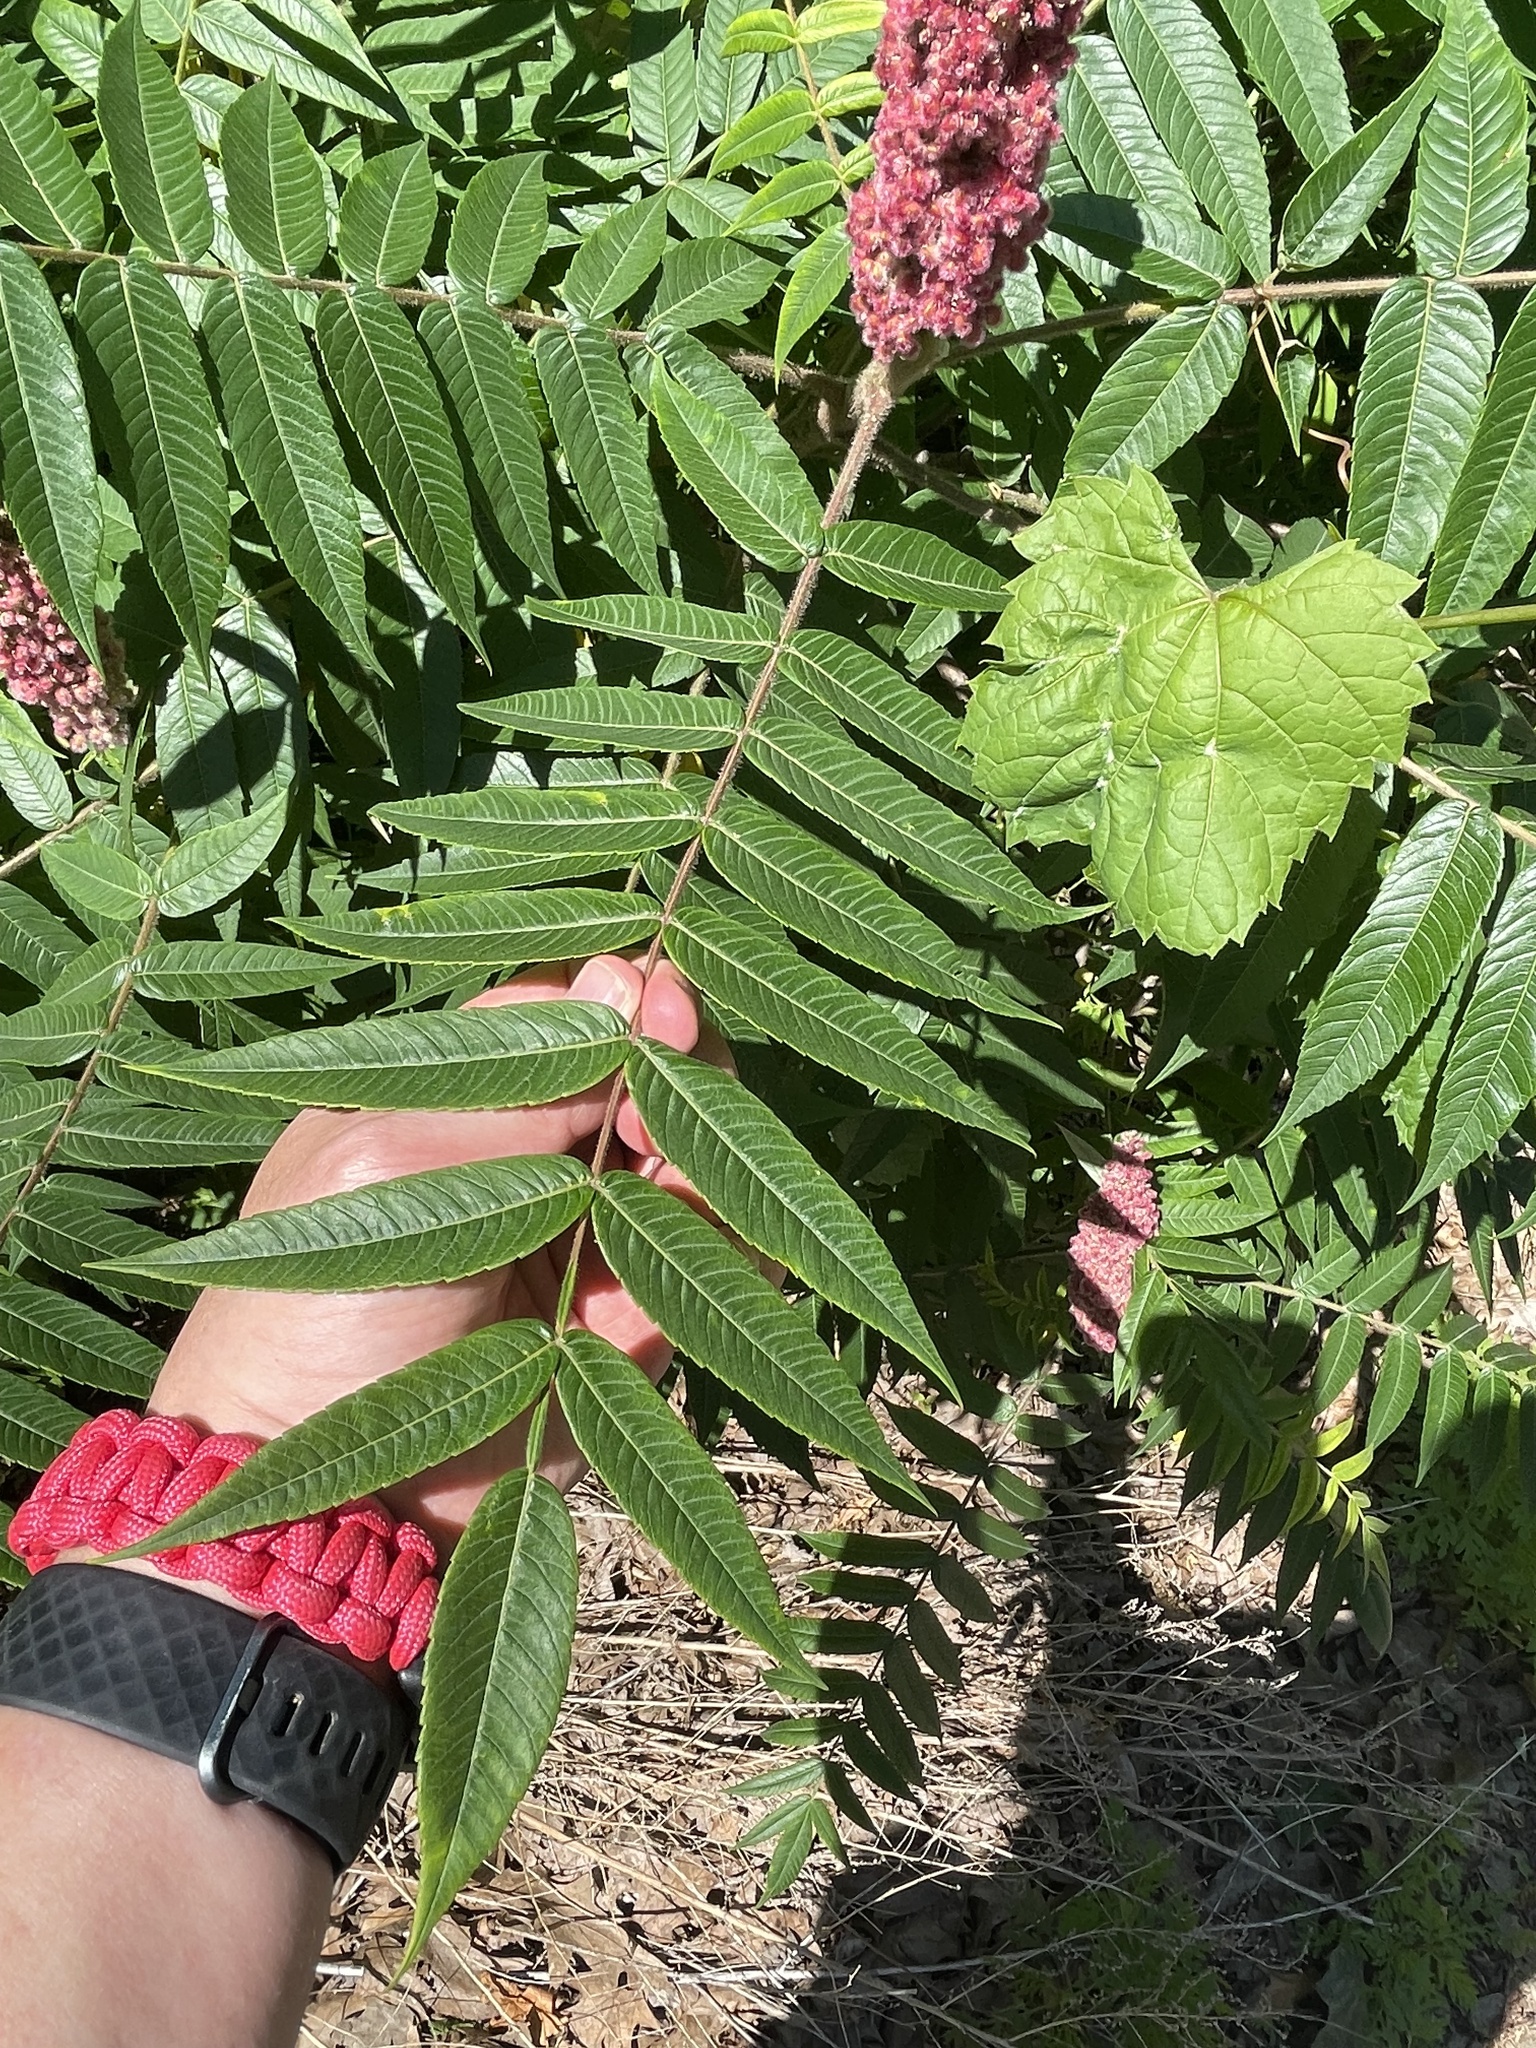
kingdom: Plantae
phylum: Tracheophyta
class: Magnoliopsida
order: Sapindales
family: Anacardiaceae
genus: Rhus
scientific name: Rhus typhina
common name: Staghorn sumac
